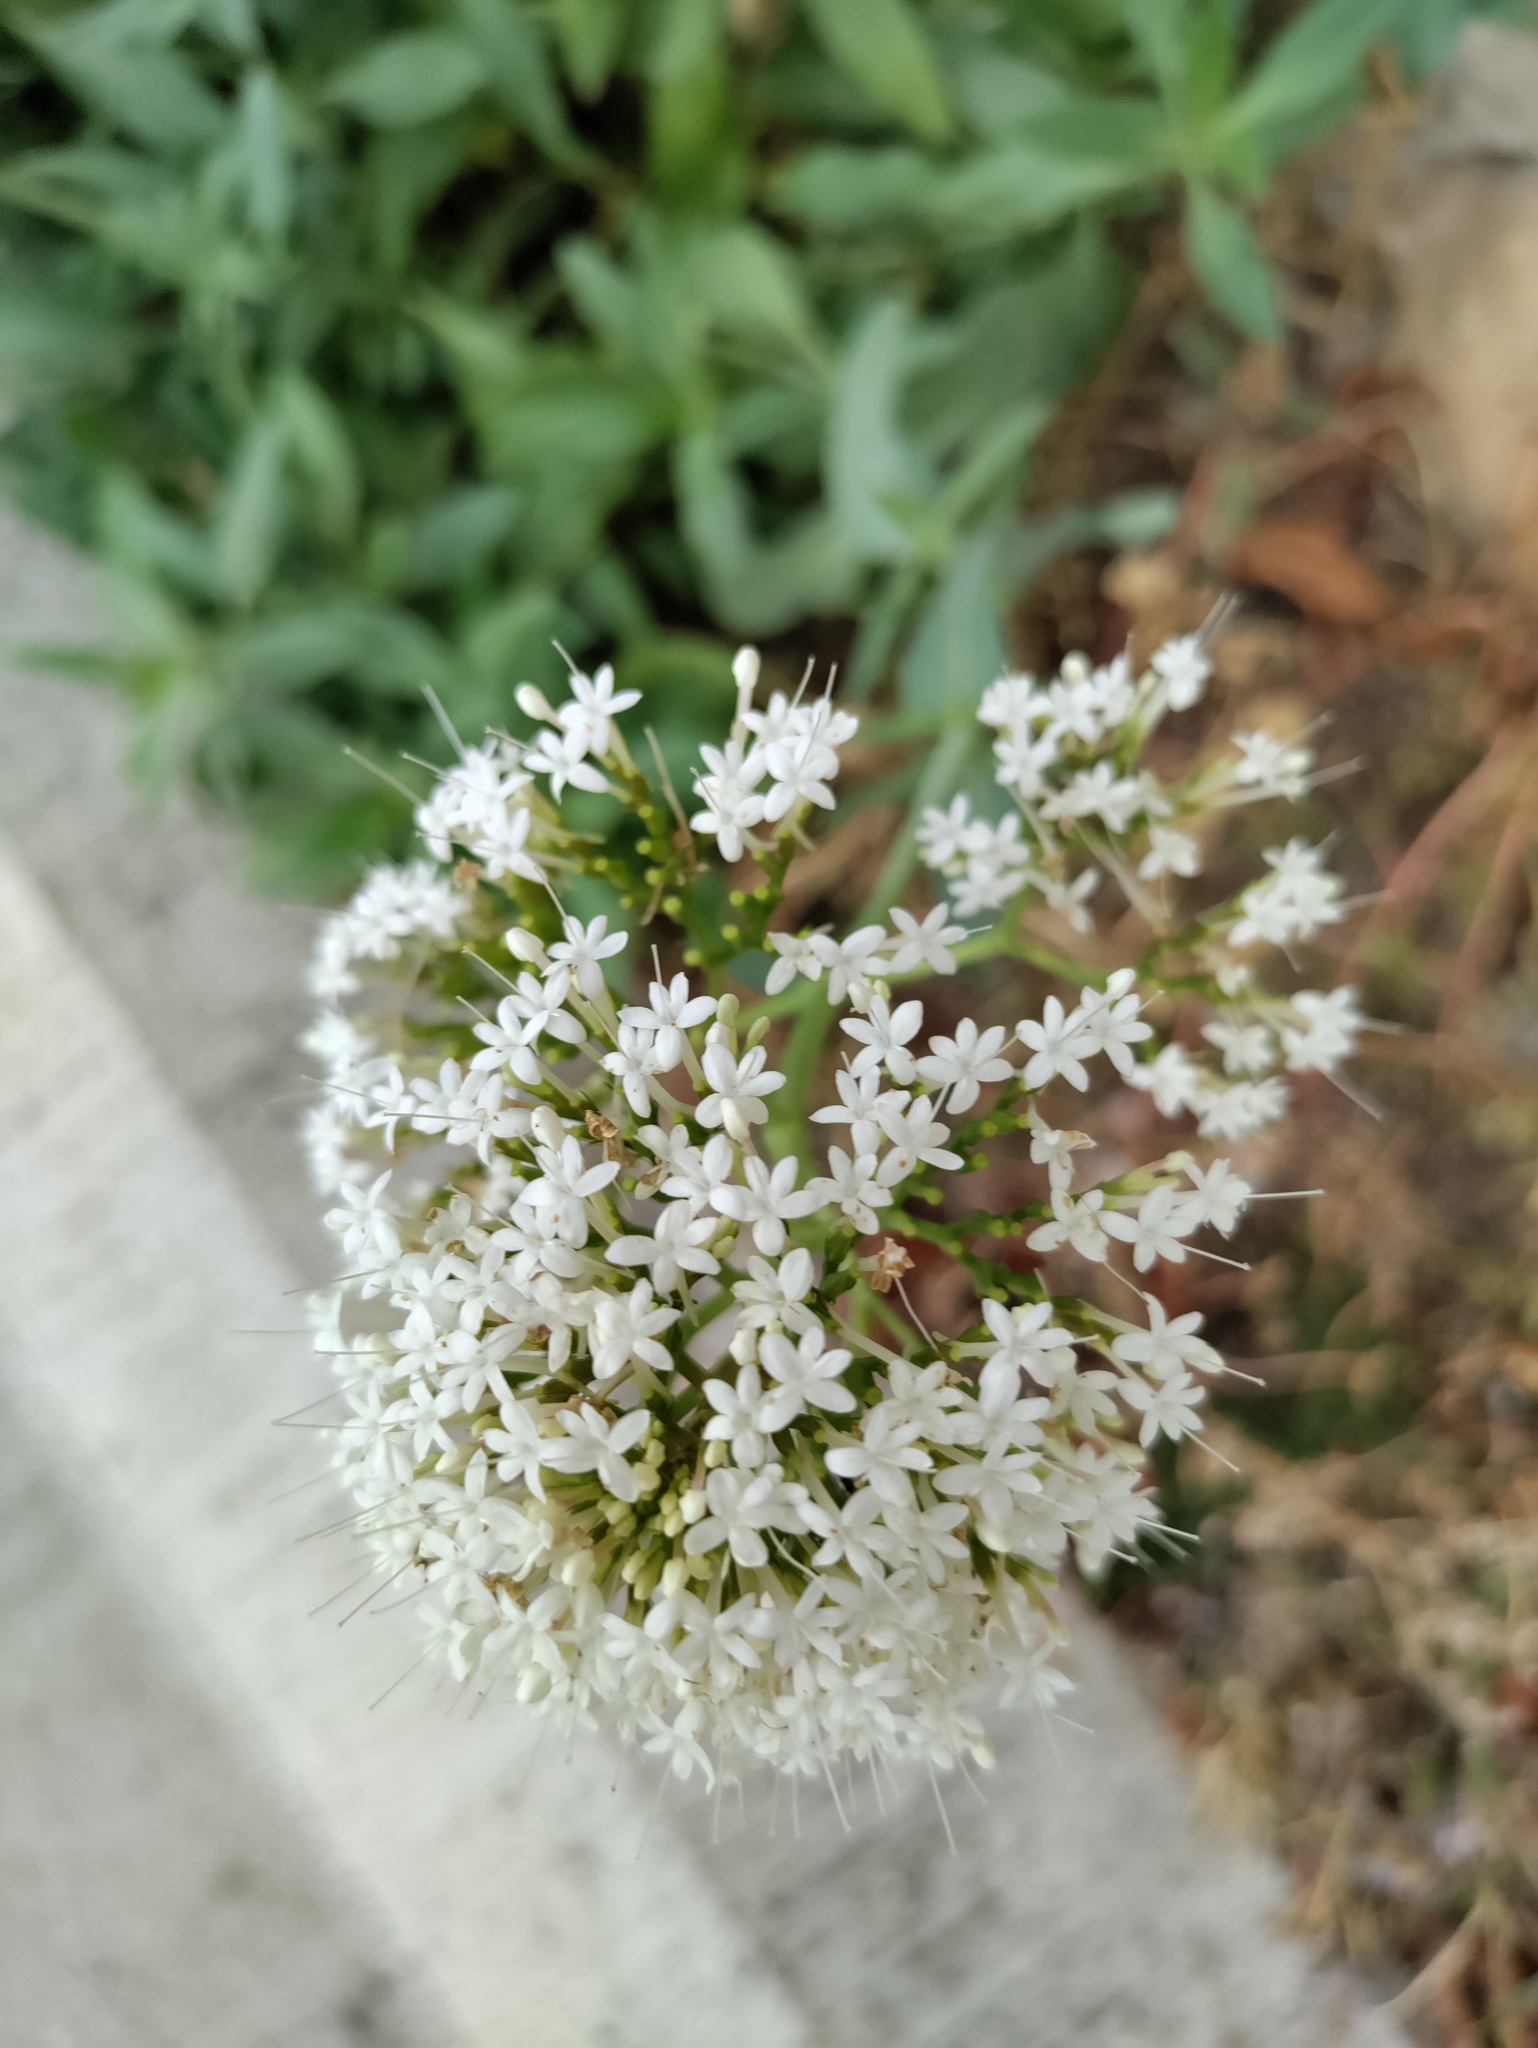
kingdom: Plantae
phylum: Tracheophyta
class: Magnoliopsida
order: Dipsacales
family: Caprifoliaceae
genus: Centranthus
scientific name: Centranthus ruber
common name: Red valerian
